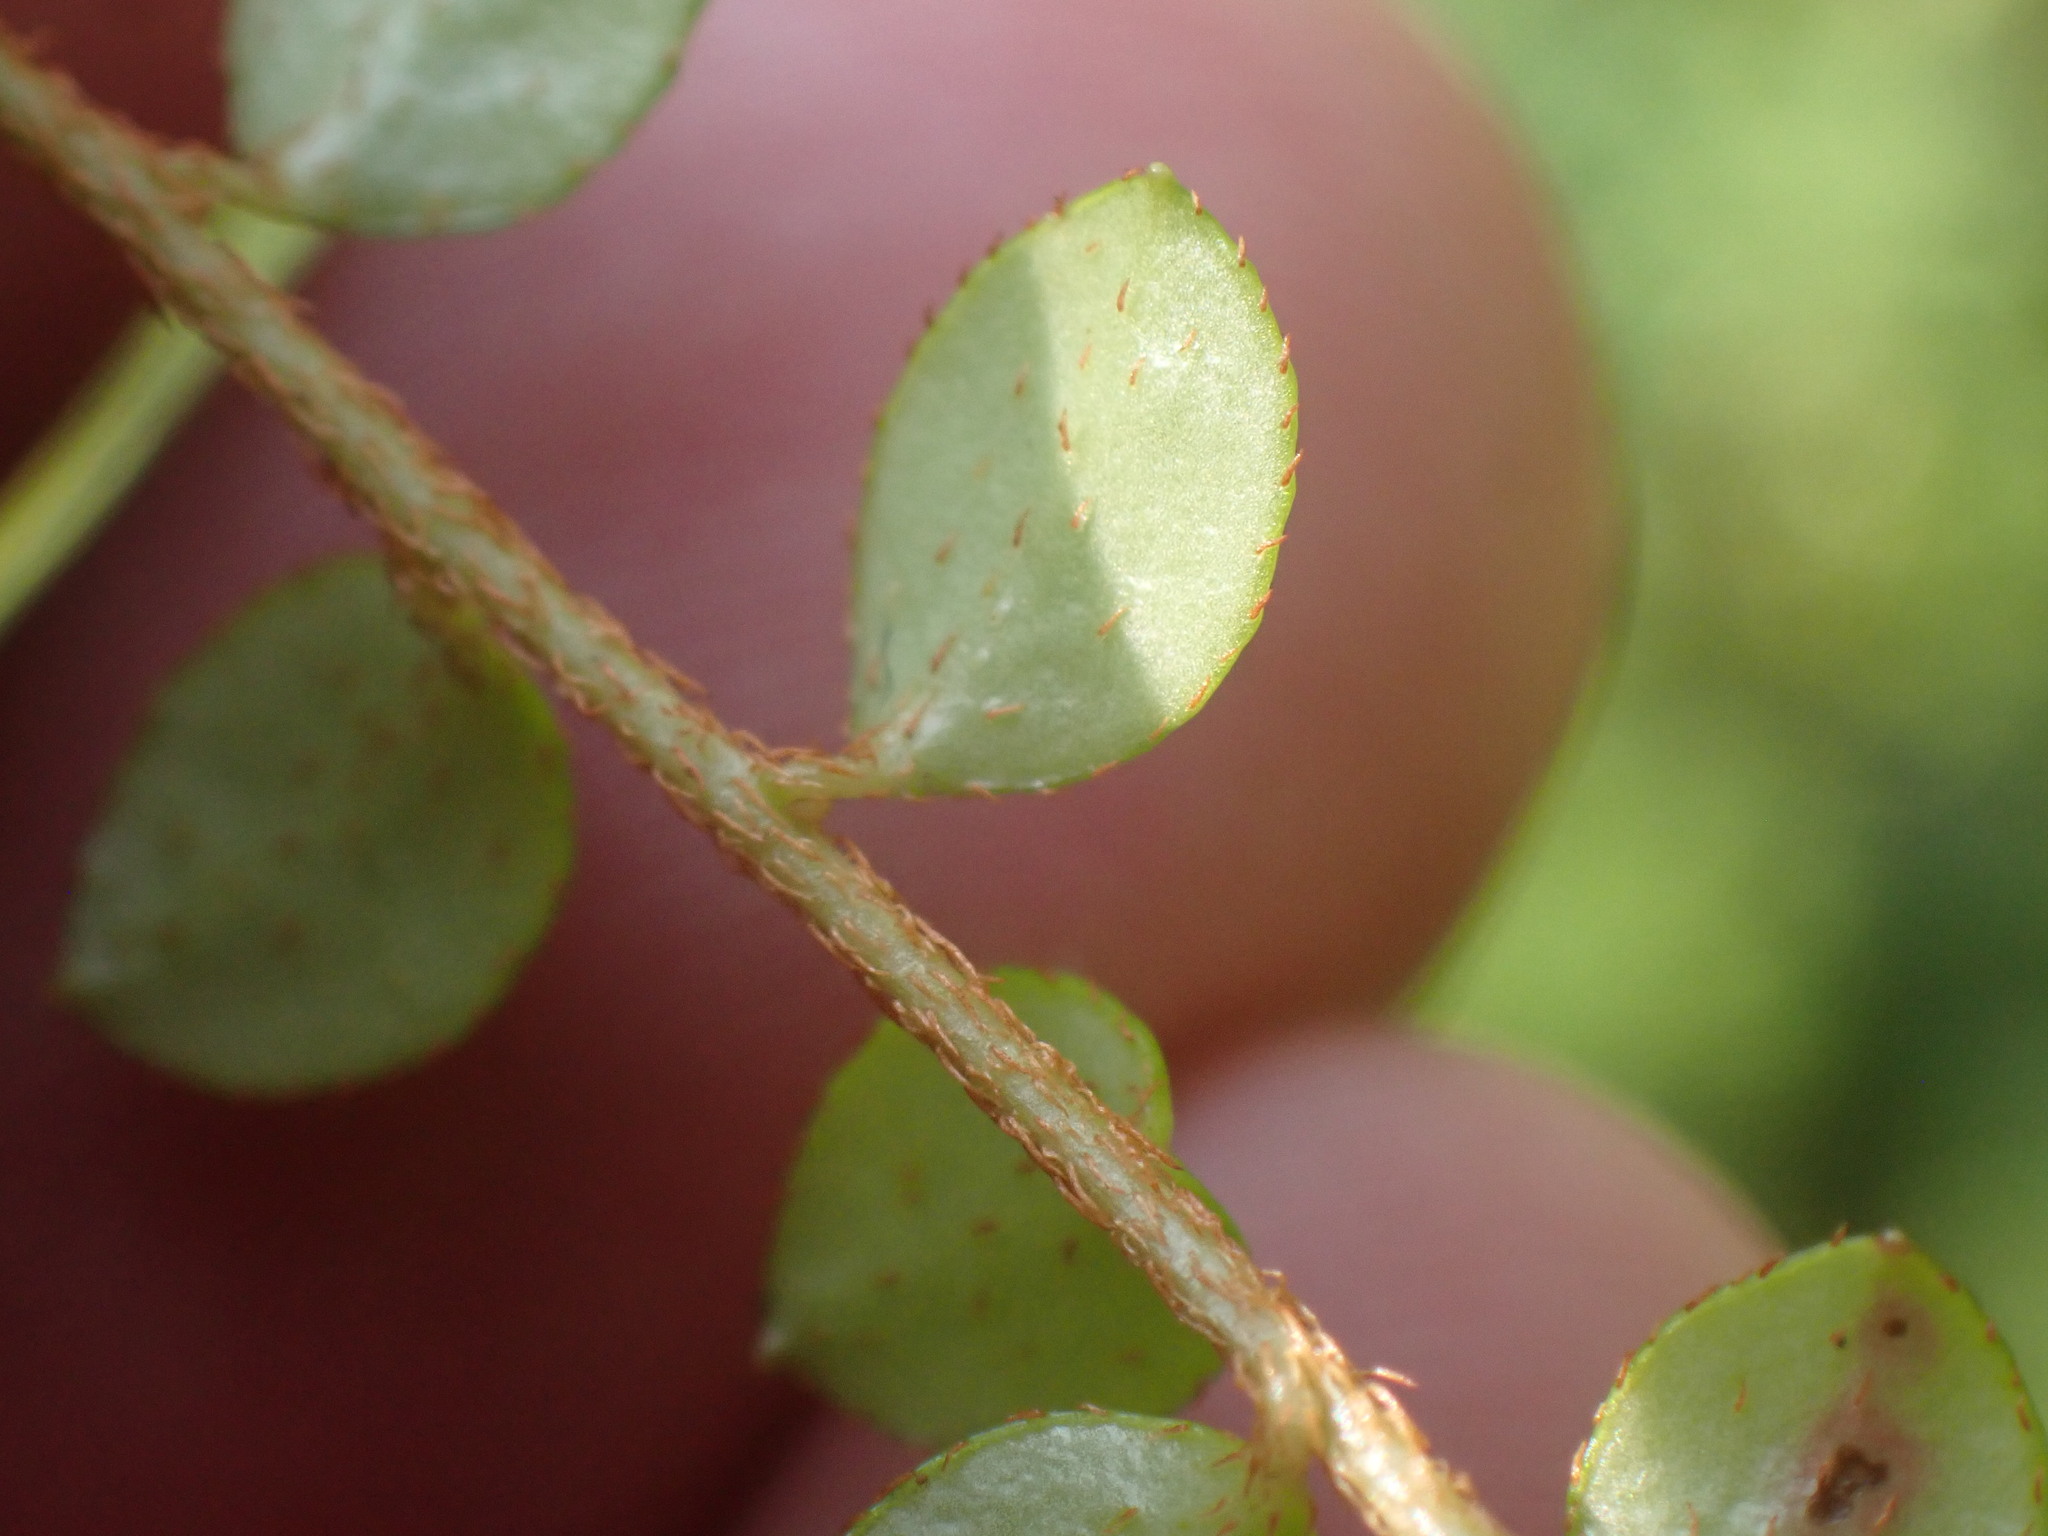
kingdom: Plantae
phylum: Tracheophyta
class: Magnoliopsida
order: Ericales
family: Ericaceae
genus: Gaultheria
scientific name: Gaultheria hispidula
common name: Cancer wintergreen
